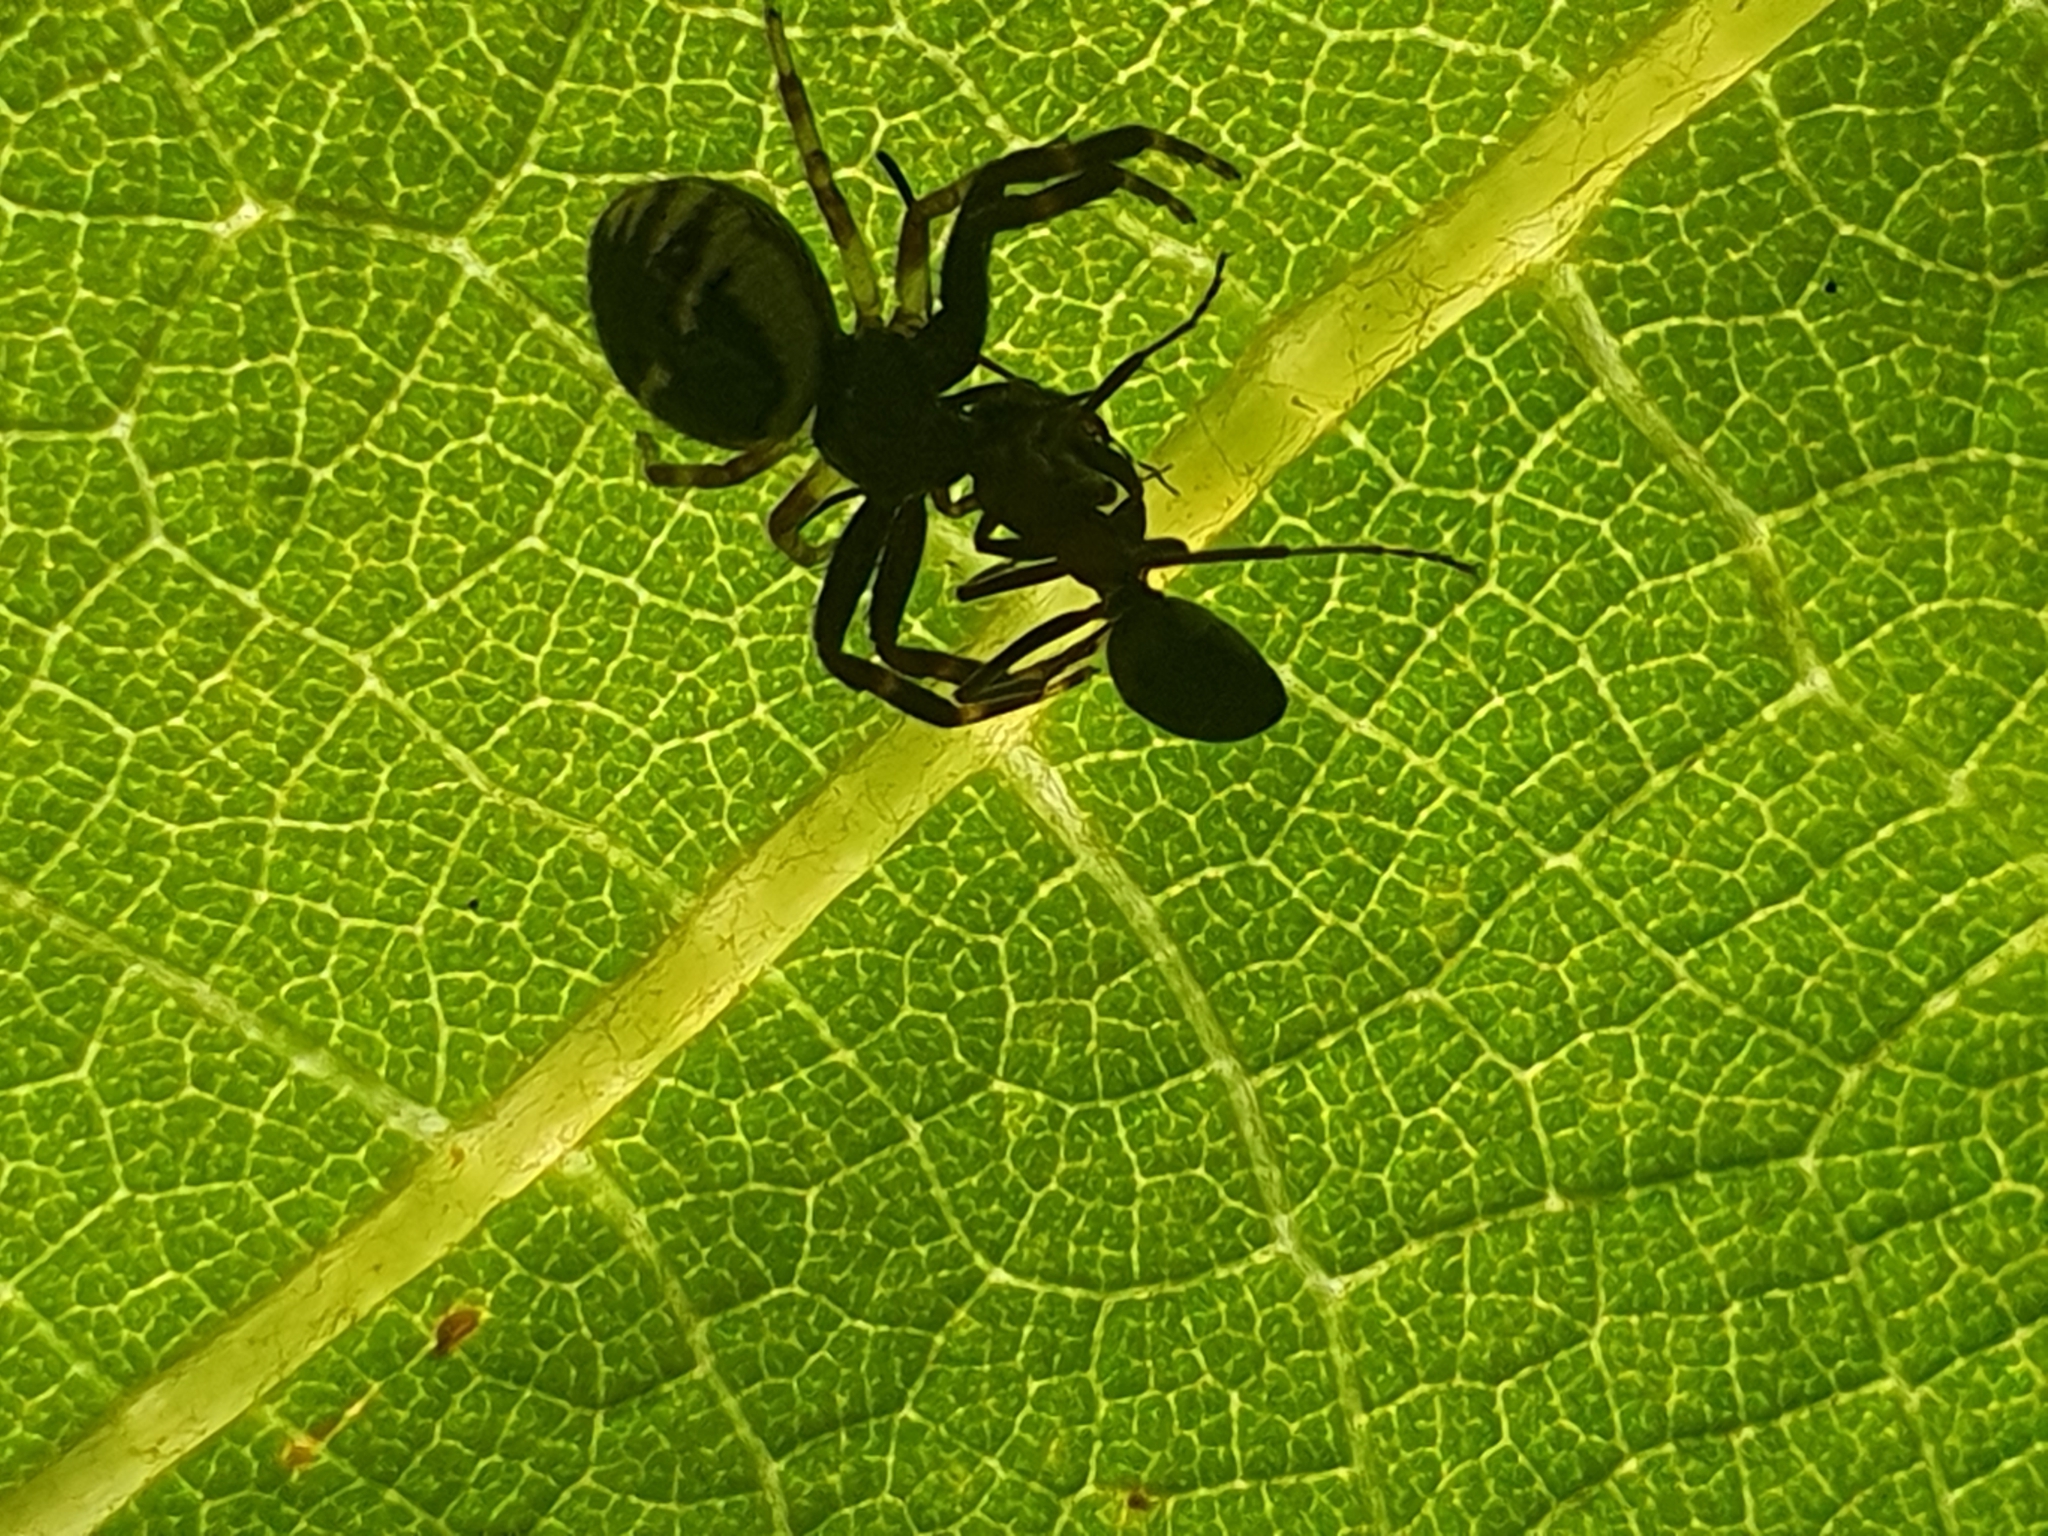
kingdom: Animalia
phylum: Arthropoda
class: Arachnida
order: Araneae
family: Thomisidae
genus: Synema
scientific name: Synema globosum
